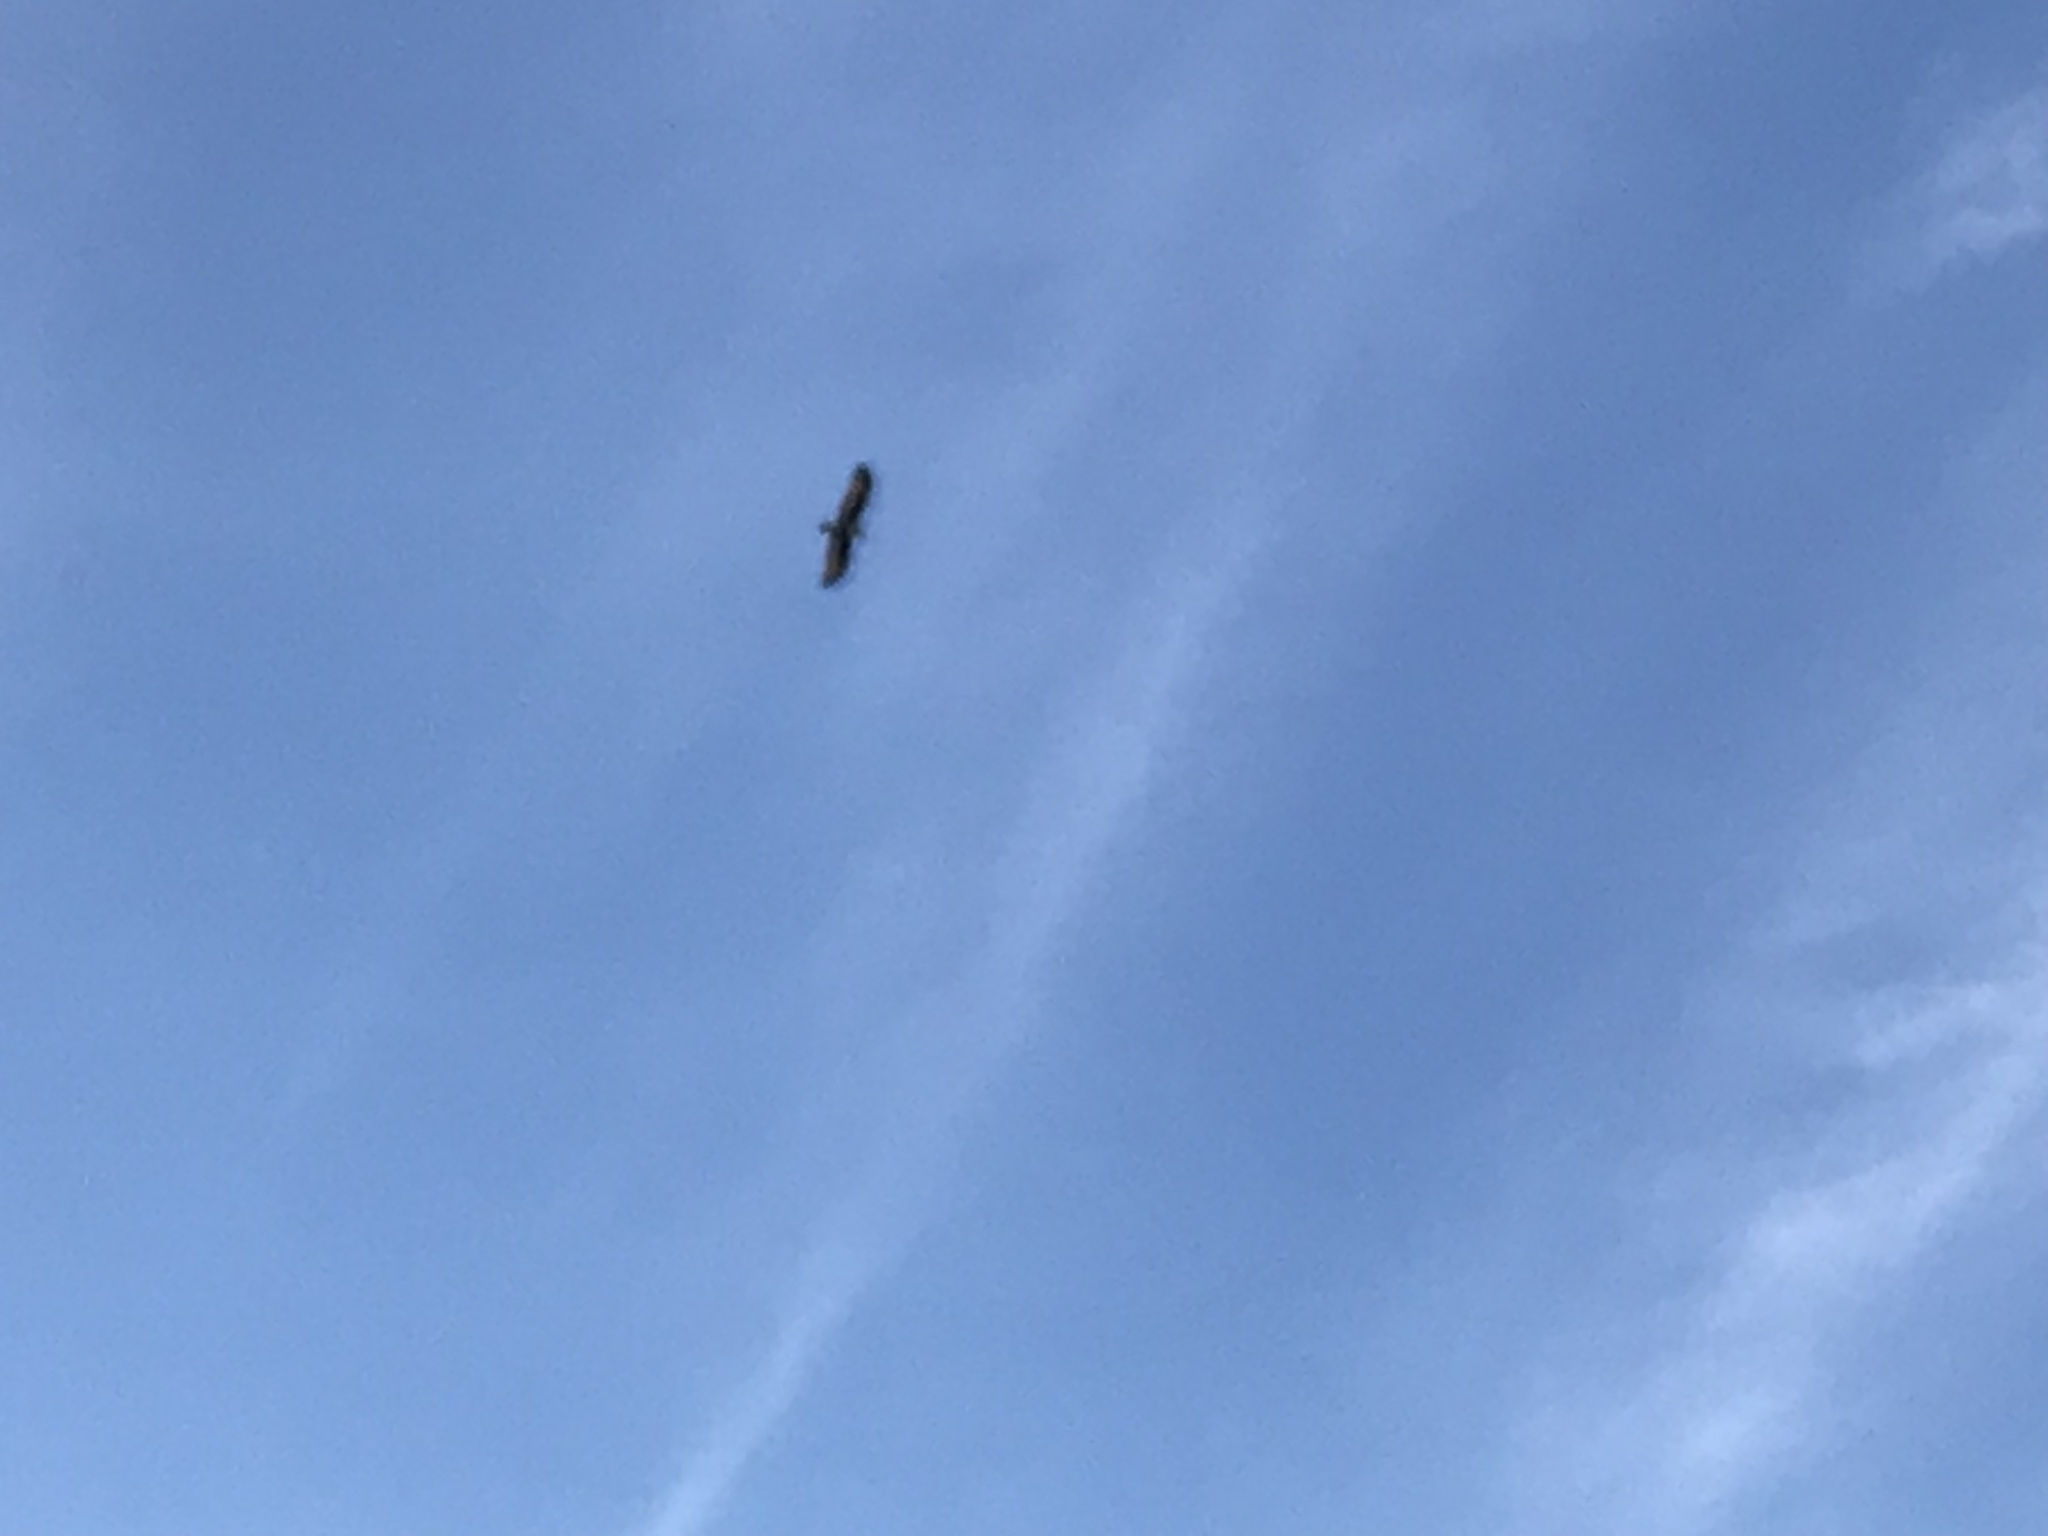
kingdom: Animalia
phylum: Chordata
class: Aves
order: Accipitriformes
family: Accipitridae
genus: Haliastur
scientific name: Haliastur indus
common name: Brahminy kite
